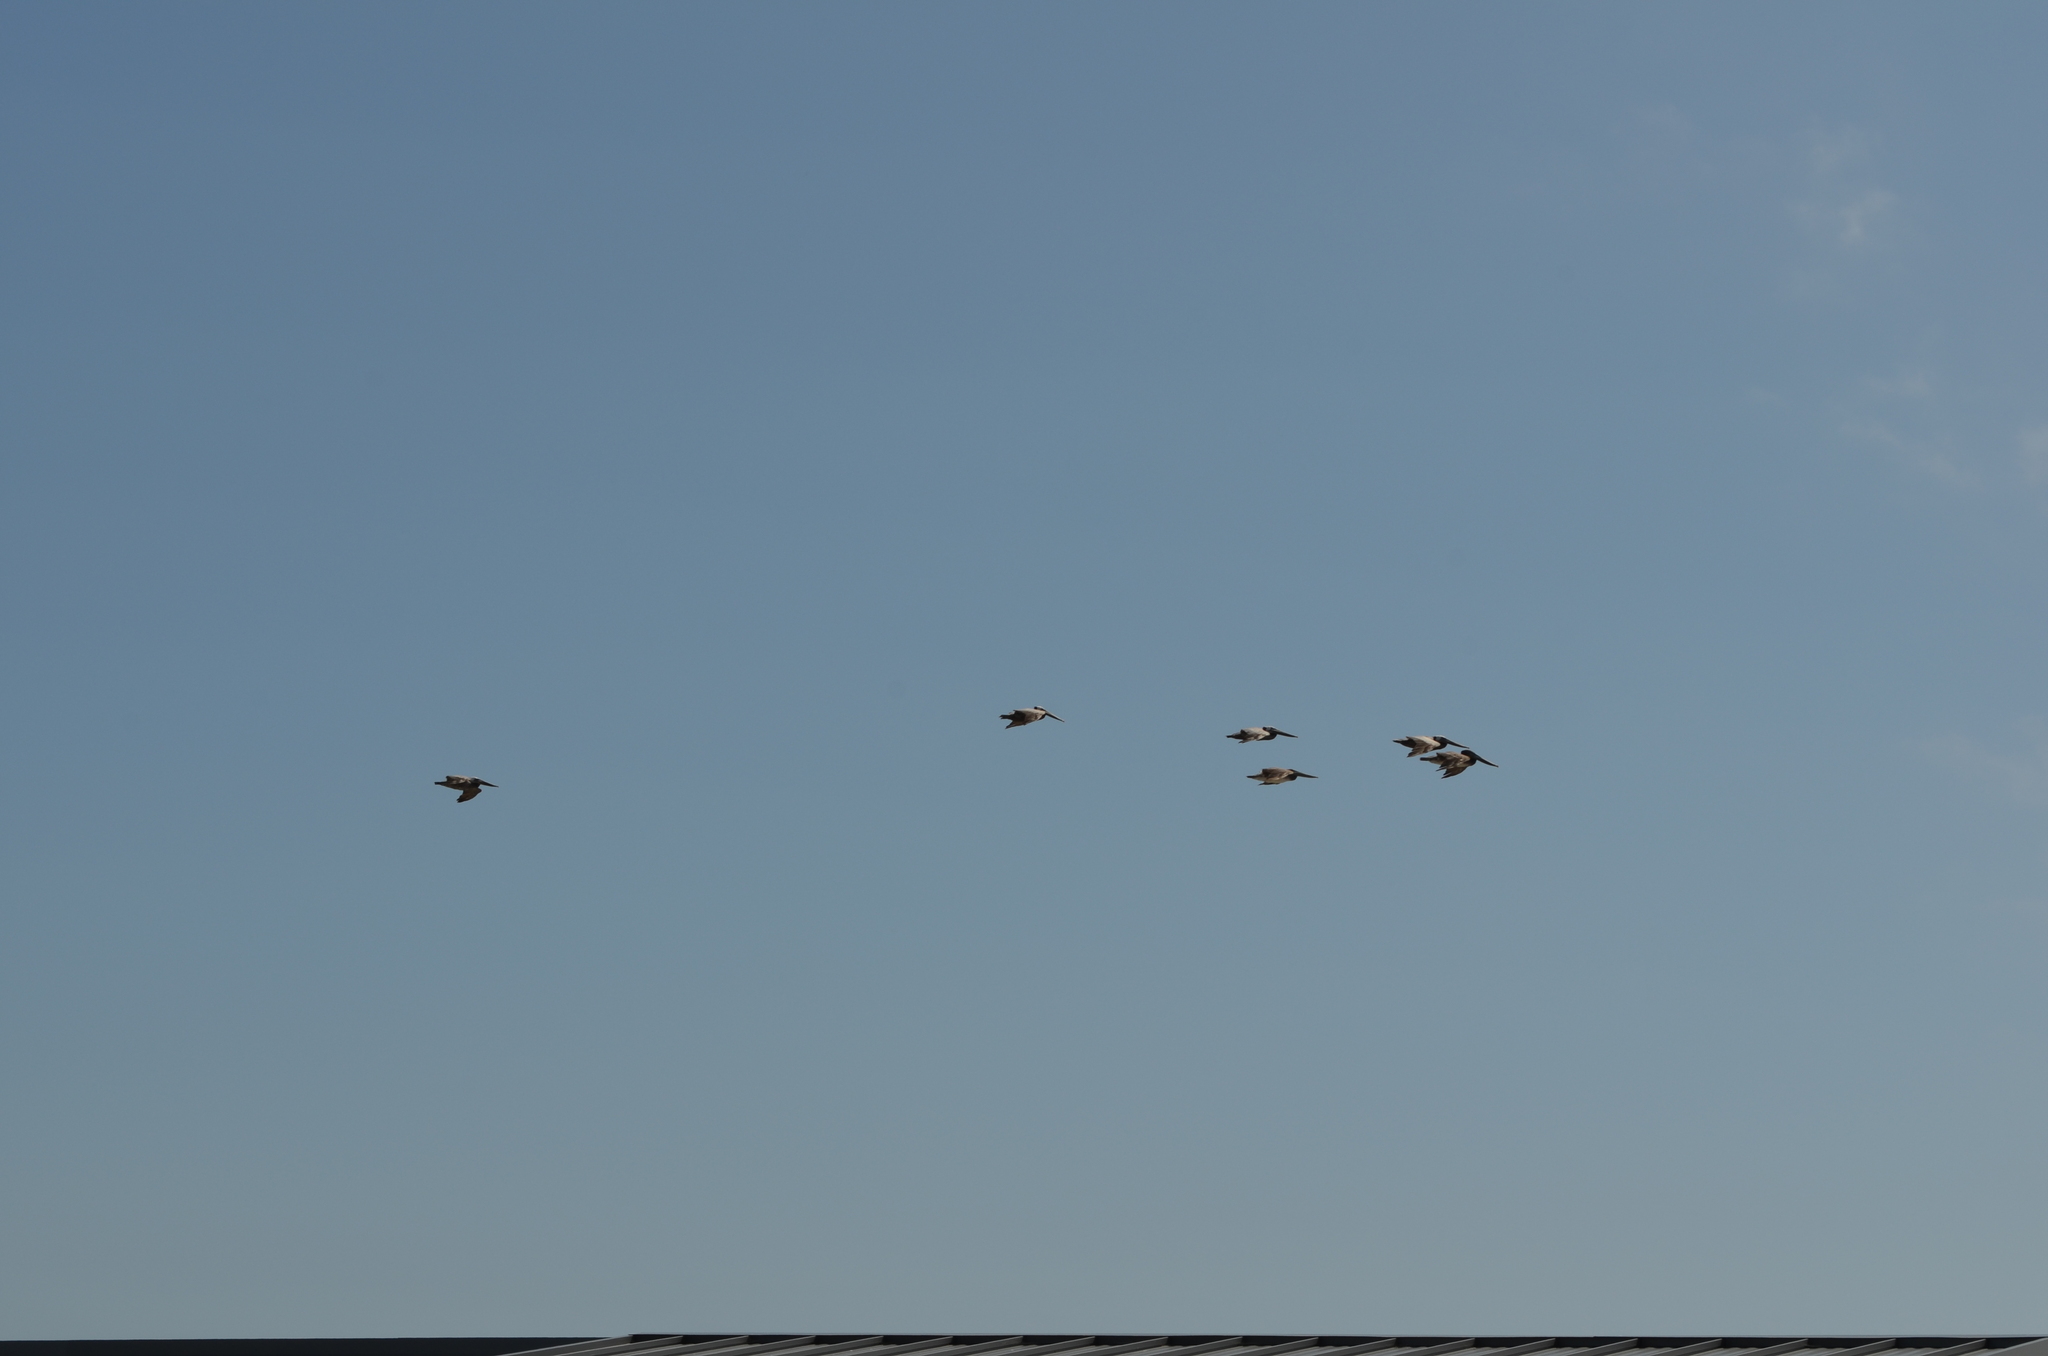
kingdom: Animalia
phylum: Chordata
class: Aves
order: Pelecaniformes
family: Pelecanidae
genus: Pelecanus
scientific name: Pelecanus occidentalis
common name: Brown pelican
